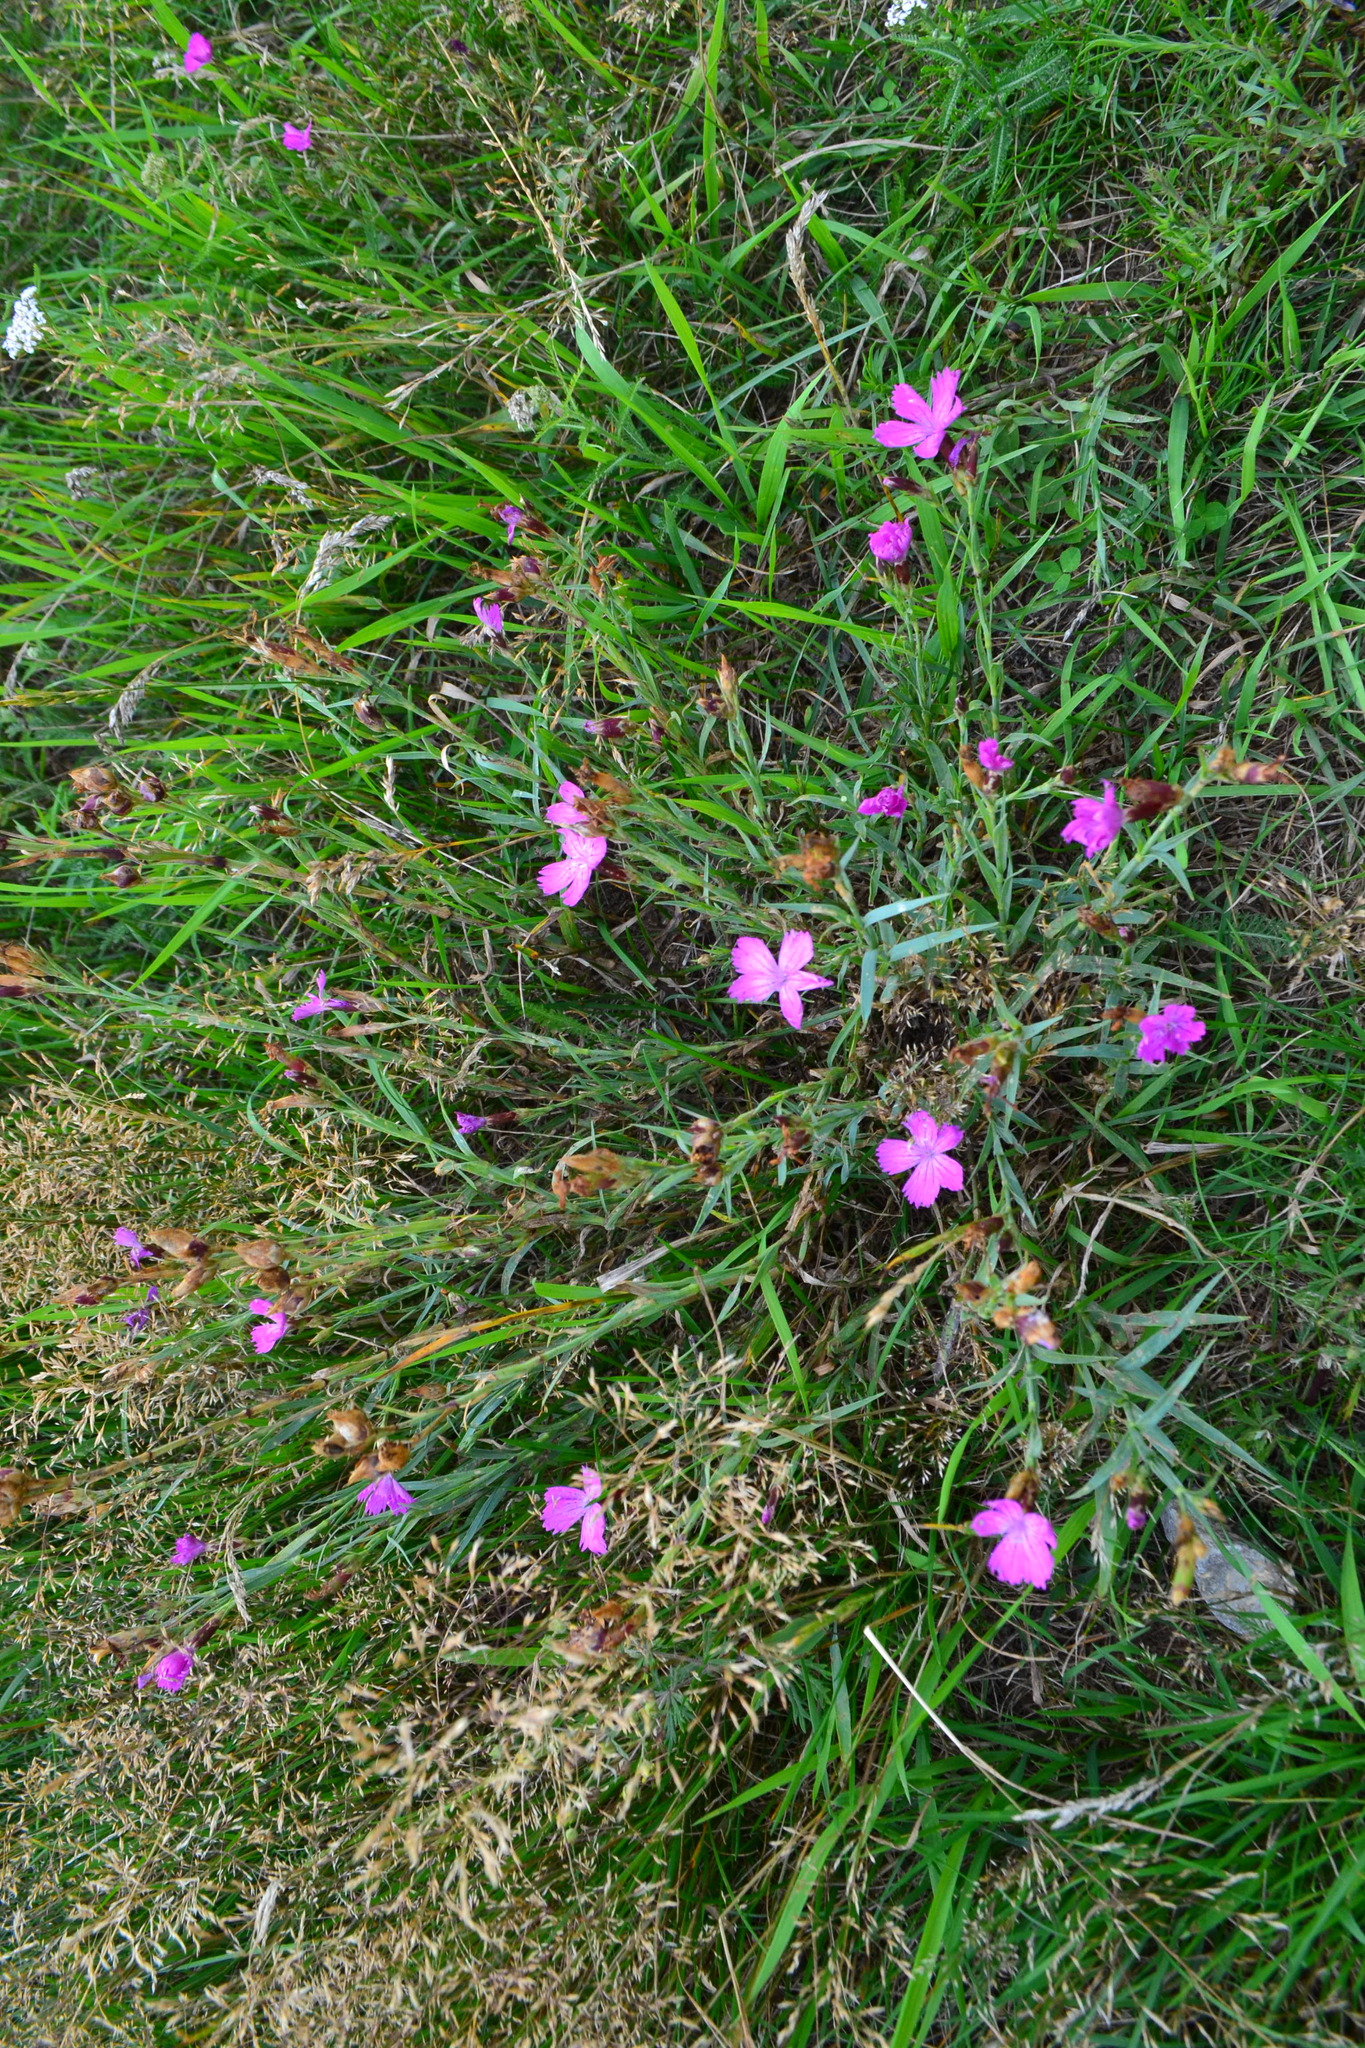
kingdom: Plantae
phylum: Tracheophyta
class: Magnoliopsida
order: Caryophyllales
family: Caryophyllaceae
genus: Dianthus
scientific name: Dianthus chinensis
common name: Rainbow pink
